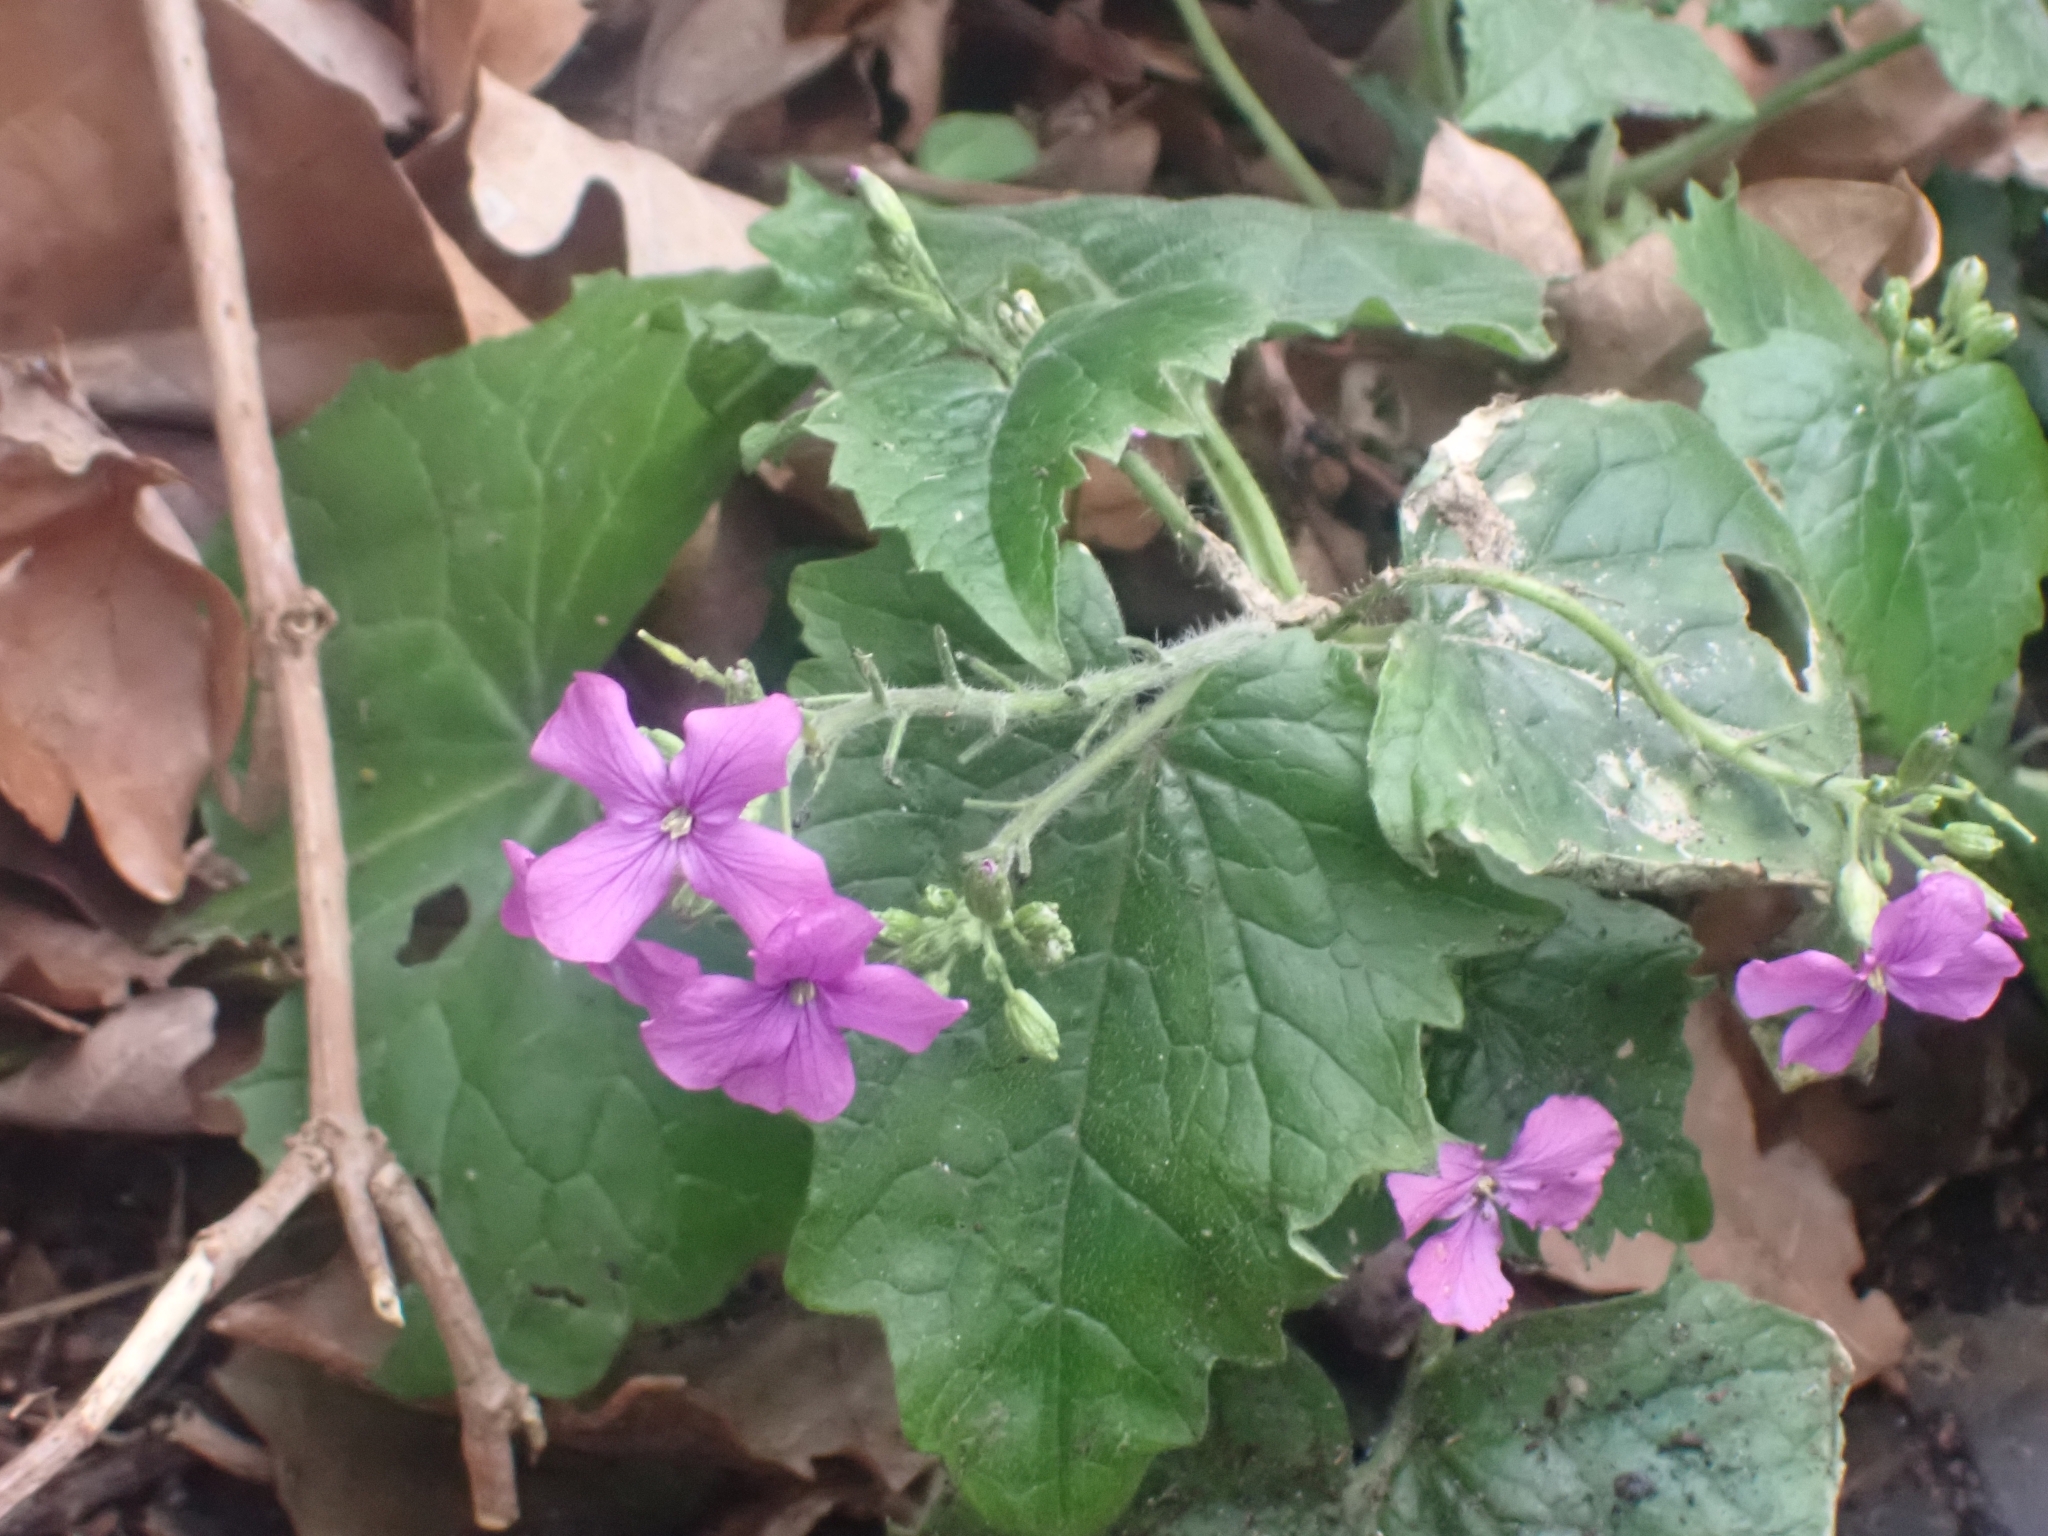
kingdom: Plantae
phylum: Tracheophyta
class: Magnoliopsida
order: Brassicales
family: Brassicaceae
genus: Lunaria
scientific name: Lunaria annua
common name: Honesty
